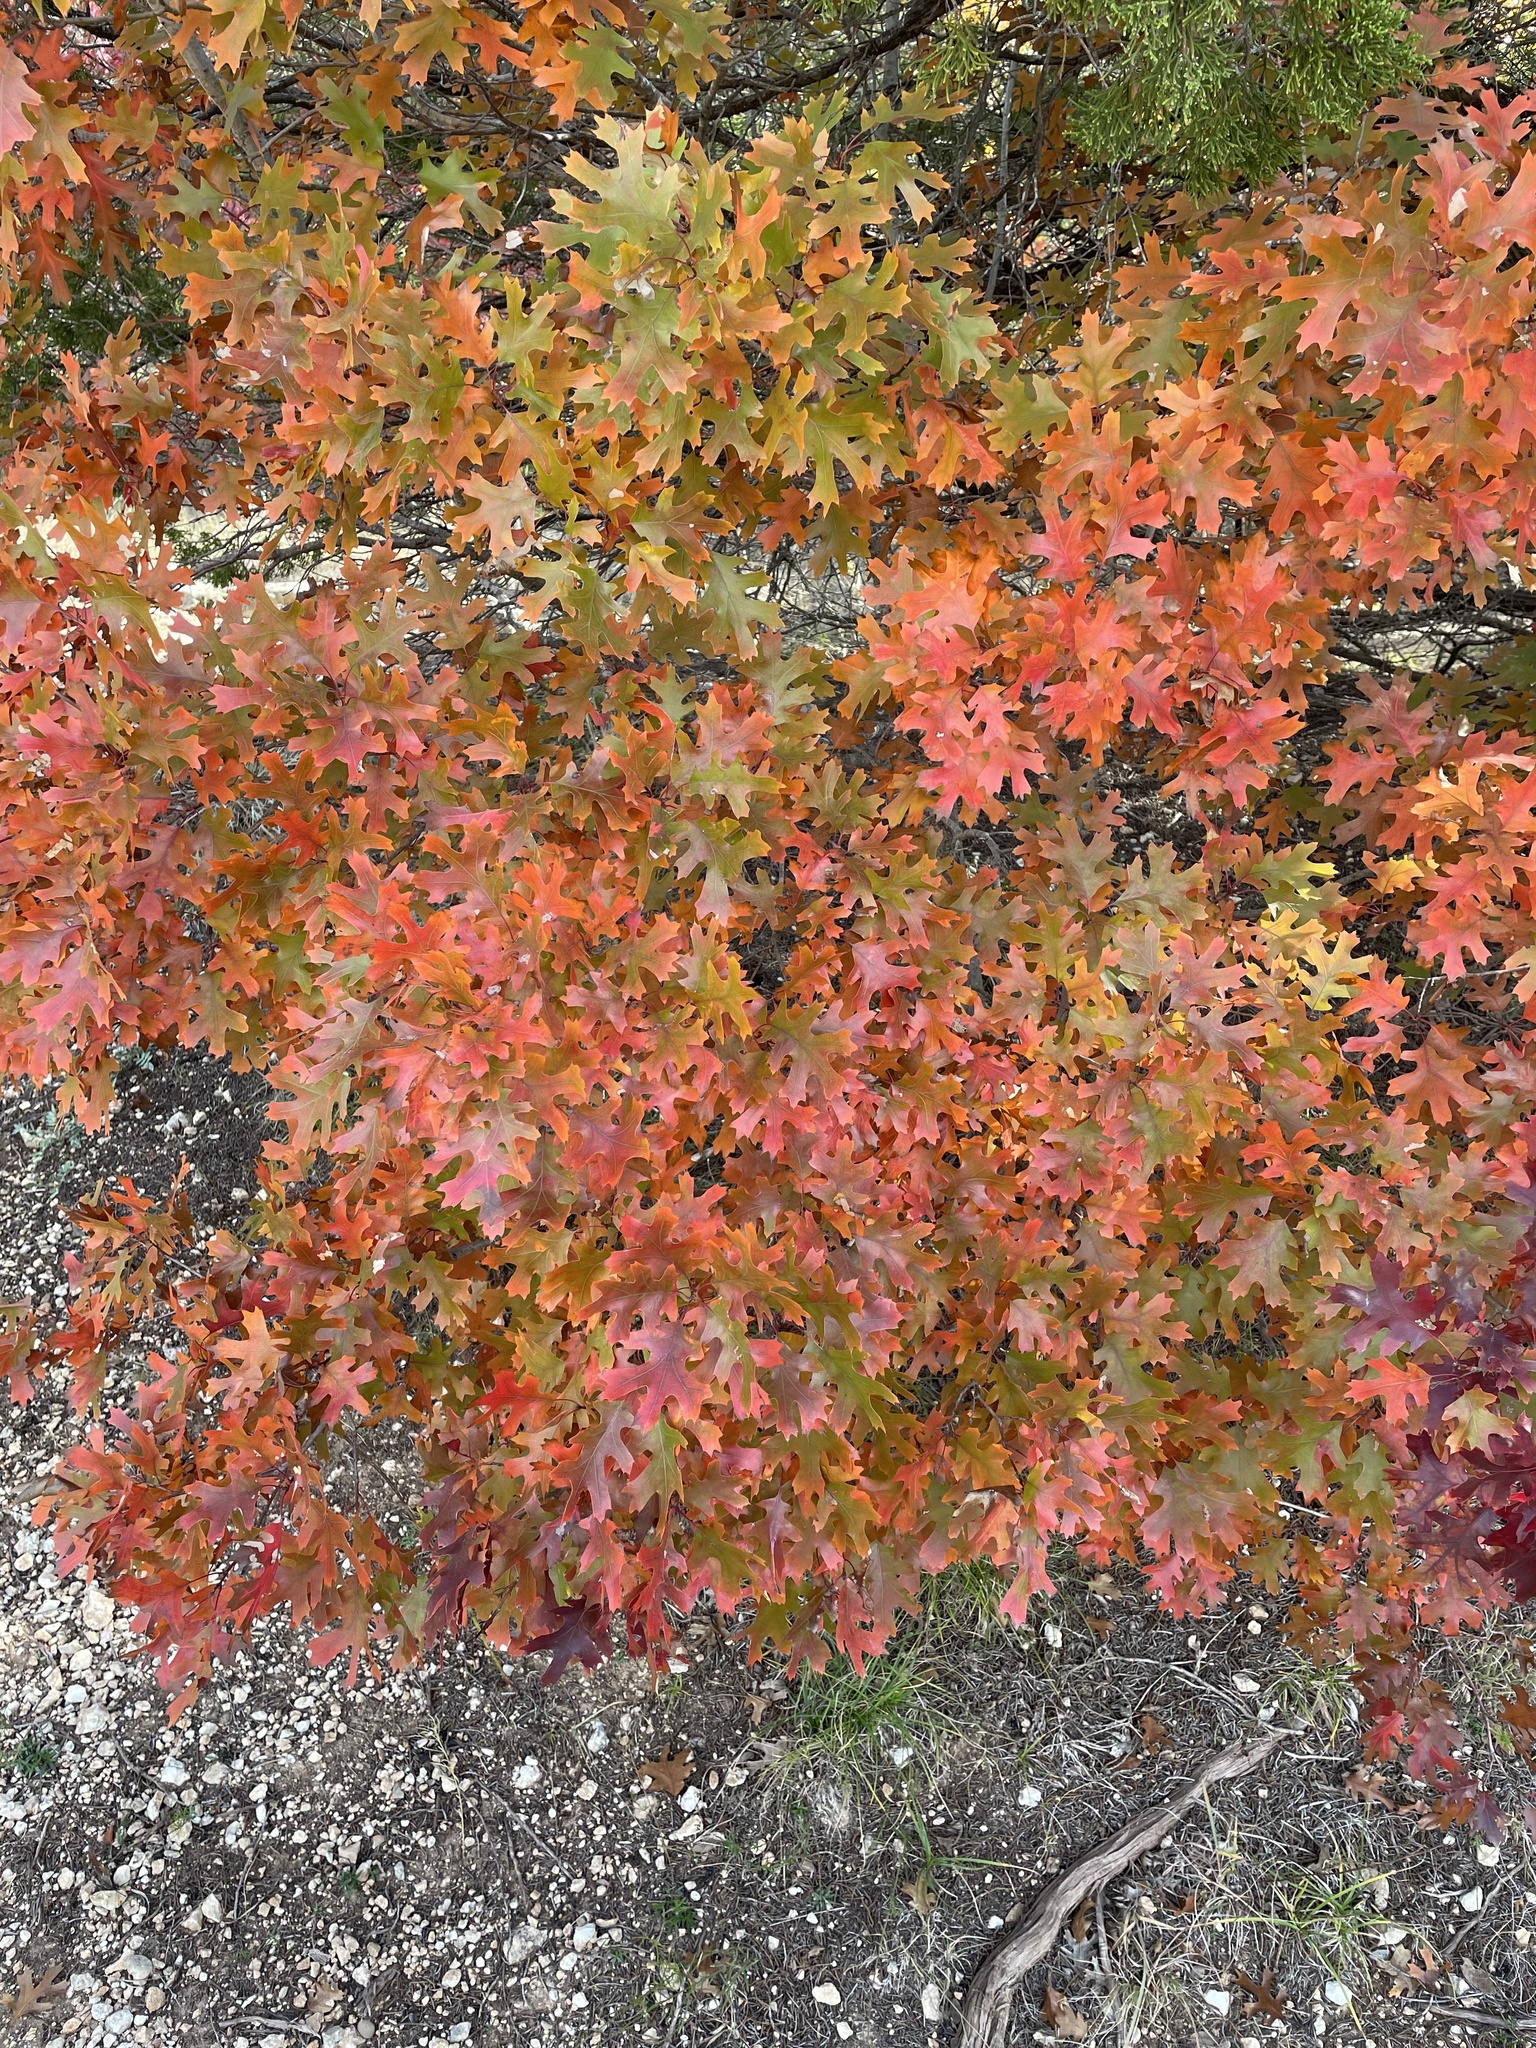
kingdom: Plantae
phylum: Tracheophyta
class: Magnoliopsida
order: Fagales
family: Fagaceae
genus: Quercus
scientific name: Quercus buckleyi
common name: Buckley oak
